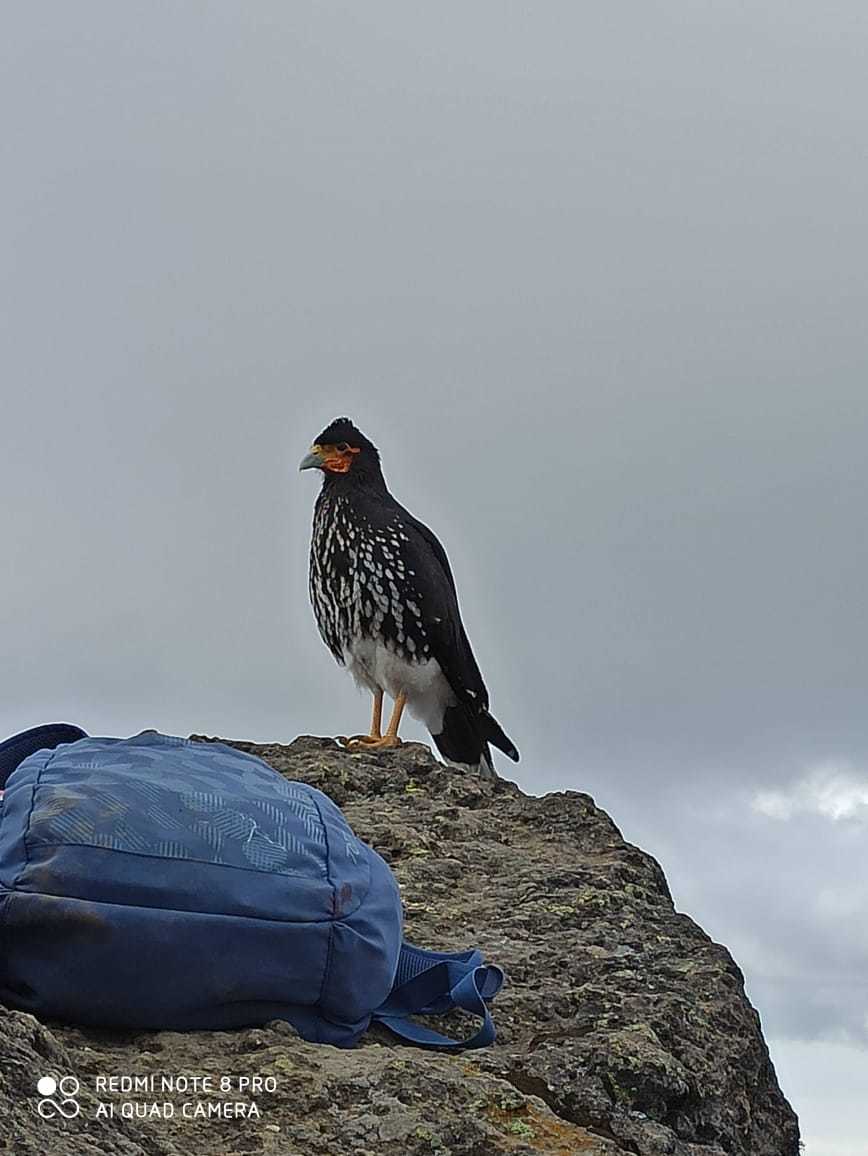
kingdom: Animalia
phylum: Chordata
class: Aves
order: Falconiformes
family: Falconidae
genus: Daptrius
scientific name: Daptrius
